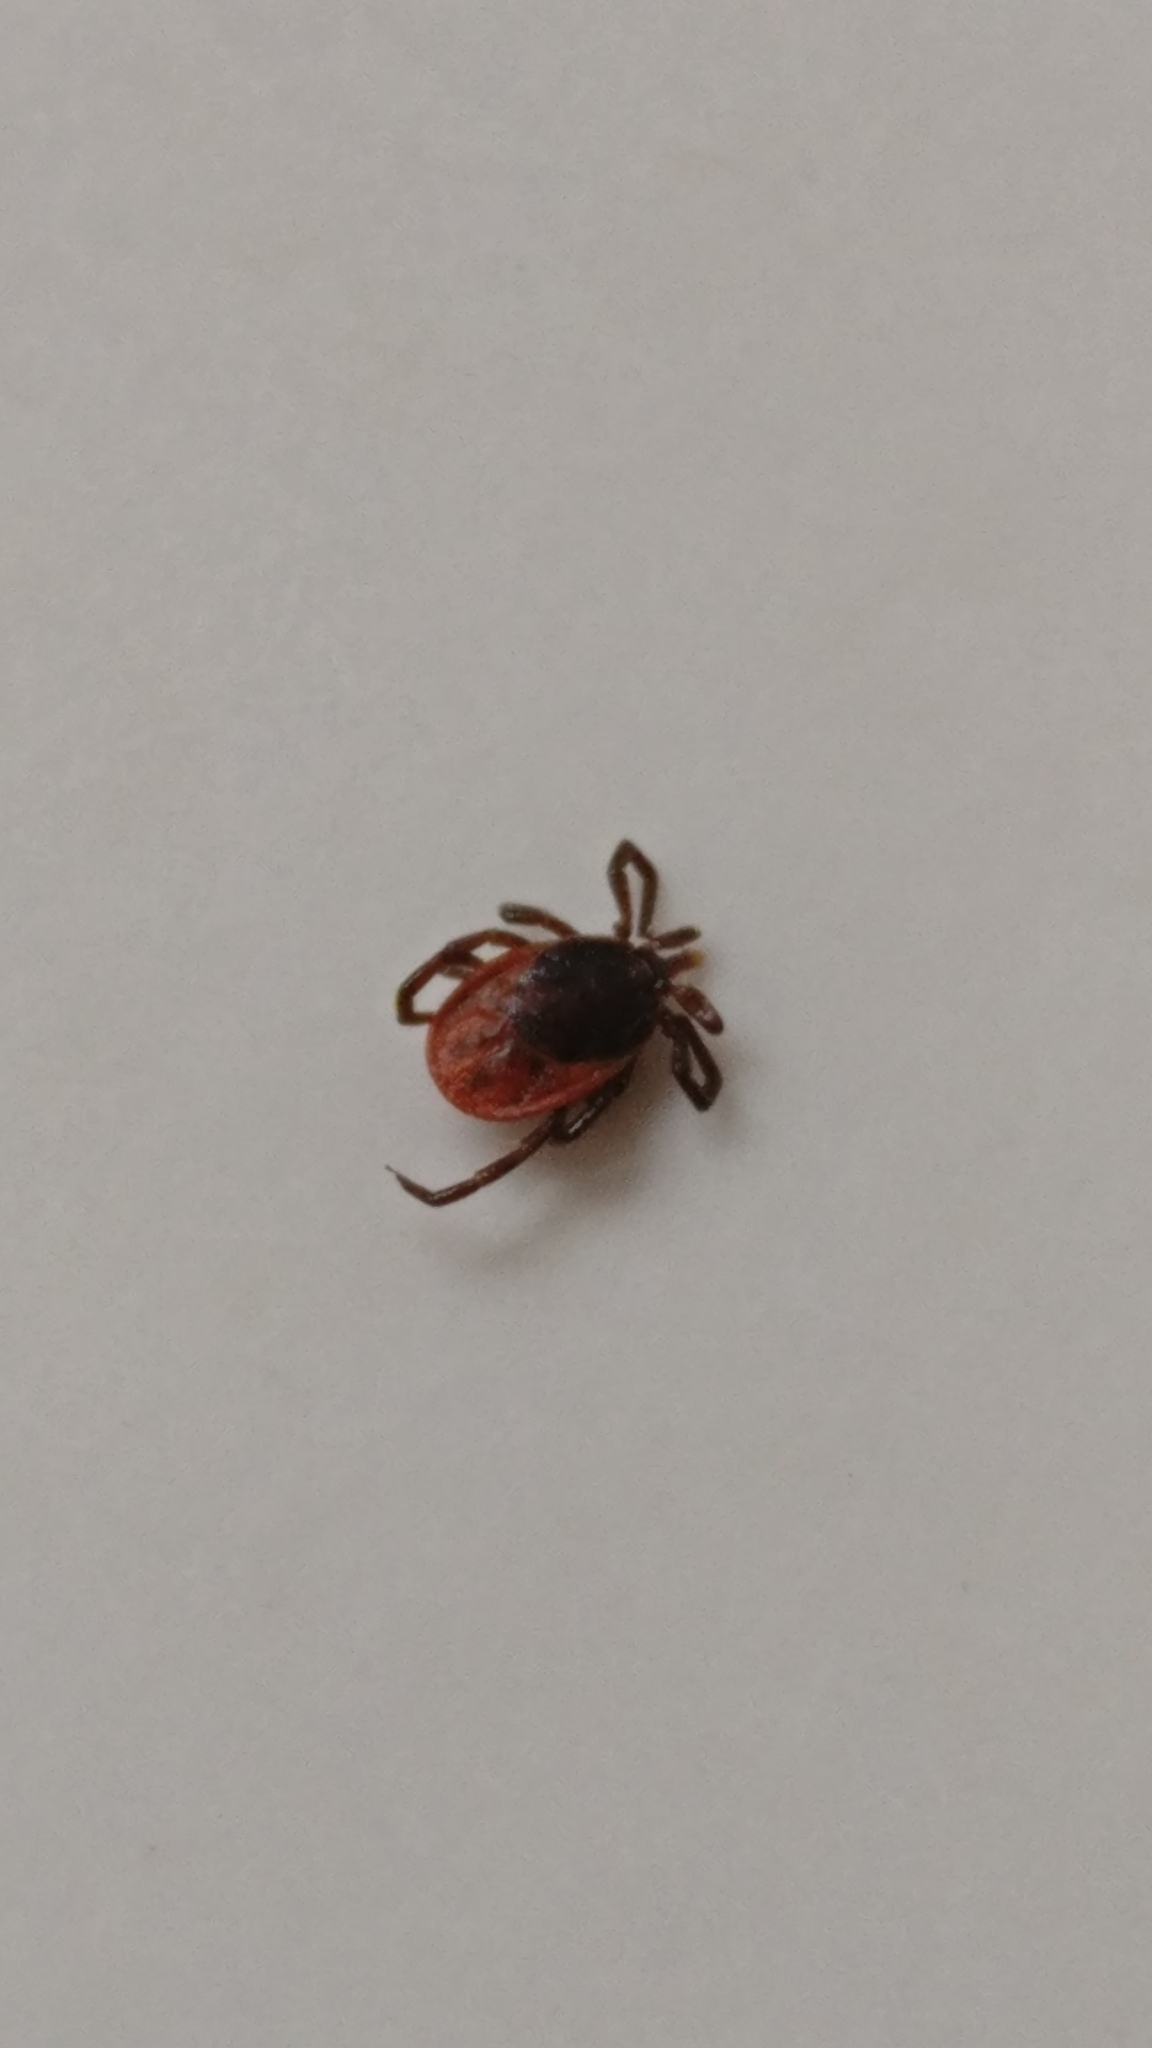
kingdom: Animalia
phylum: Arthropoda
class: Arachnida
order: Ixodida
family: Ixodidae
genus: Ixodes
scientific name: Ixodes ricinus
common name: Castor bean tick
